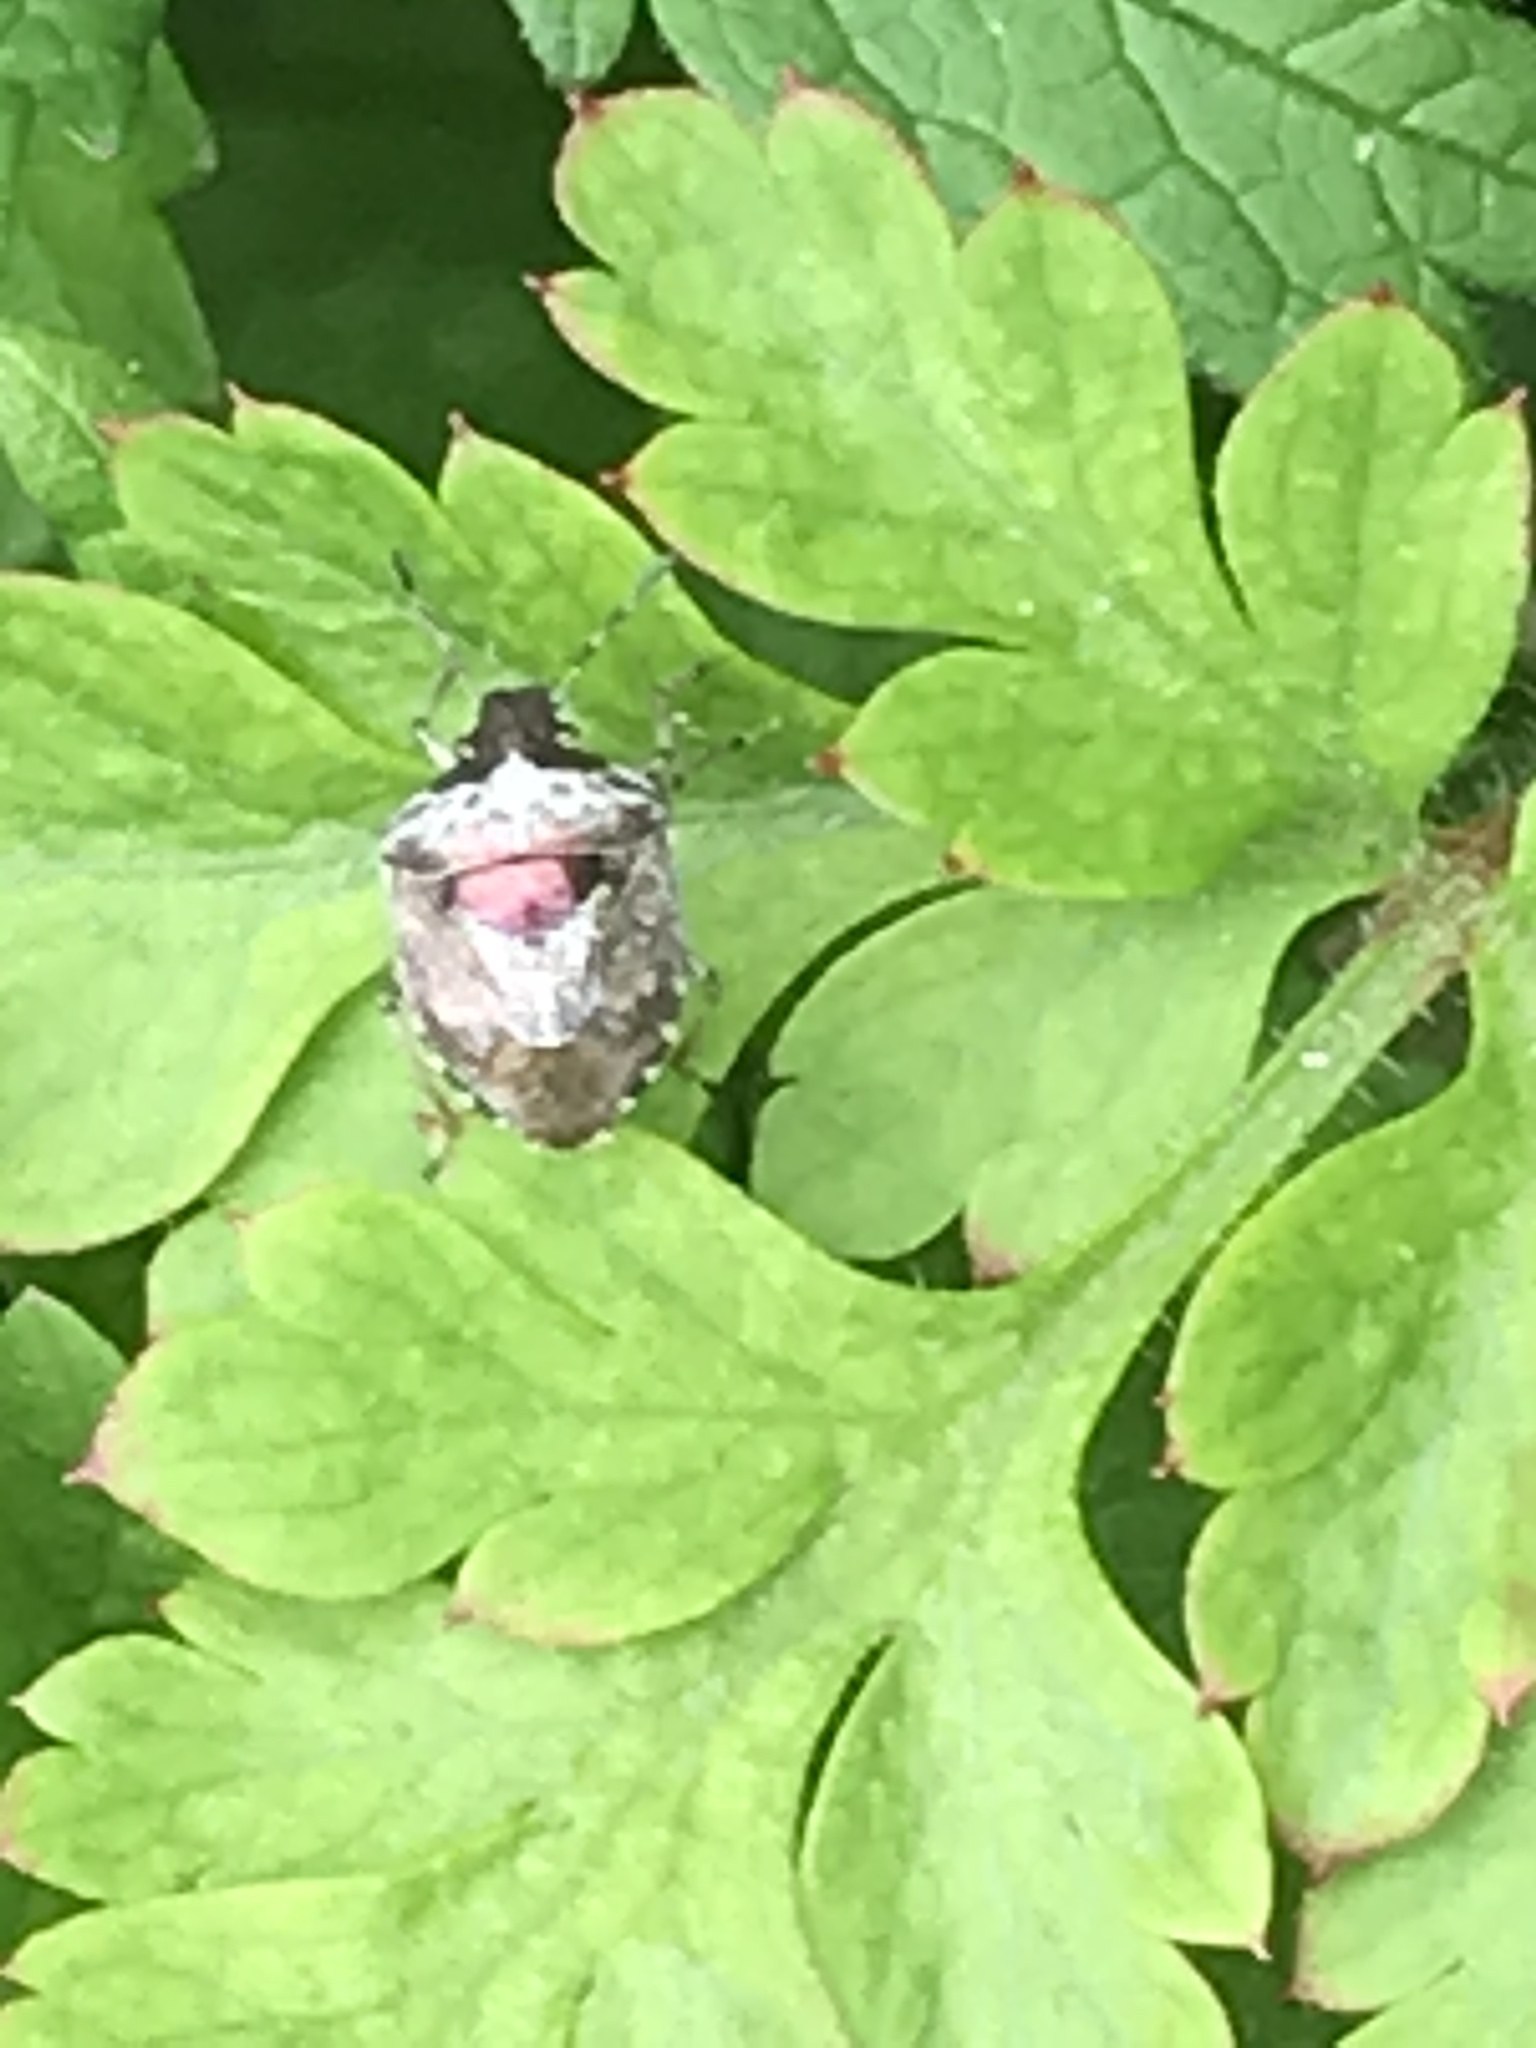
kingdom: Animalia
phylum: Arthropoda
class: Insecta
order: Hemiptera
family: Pentatomidae
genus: Eysarcoris
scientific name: Eysarcoris venustissimus
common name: Woundwort shieldbug
